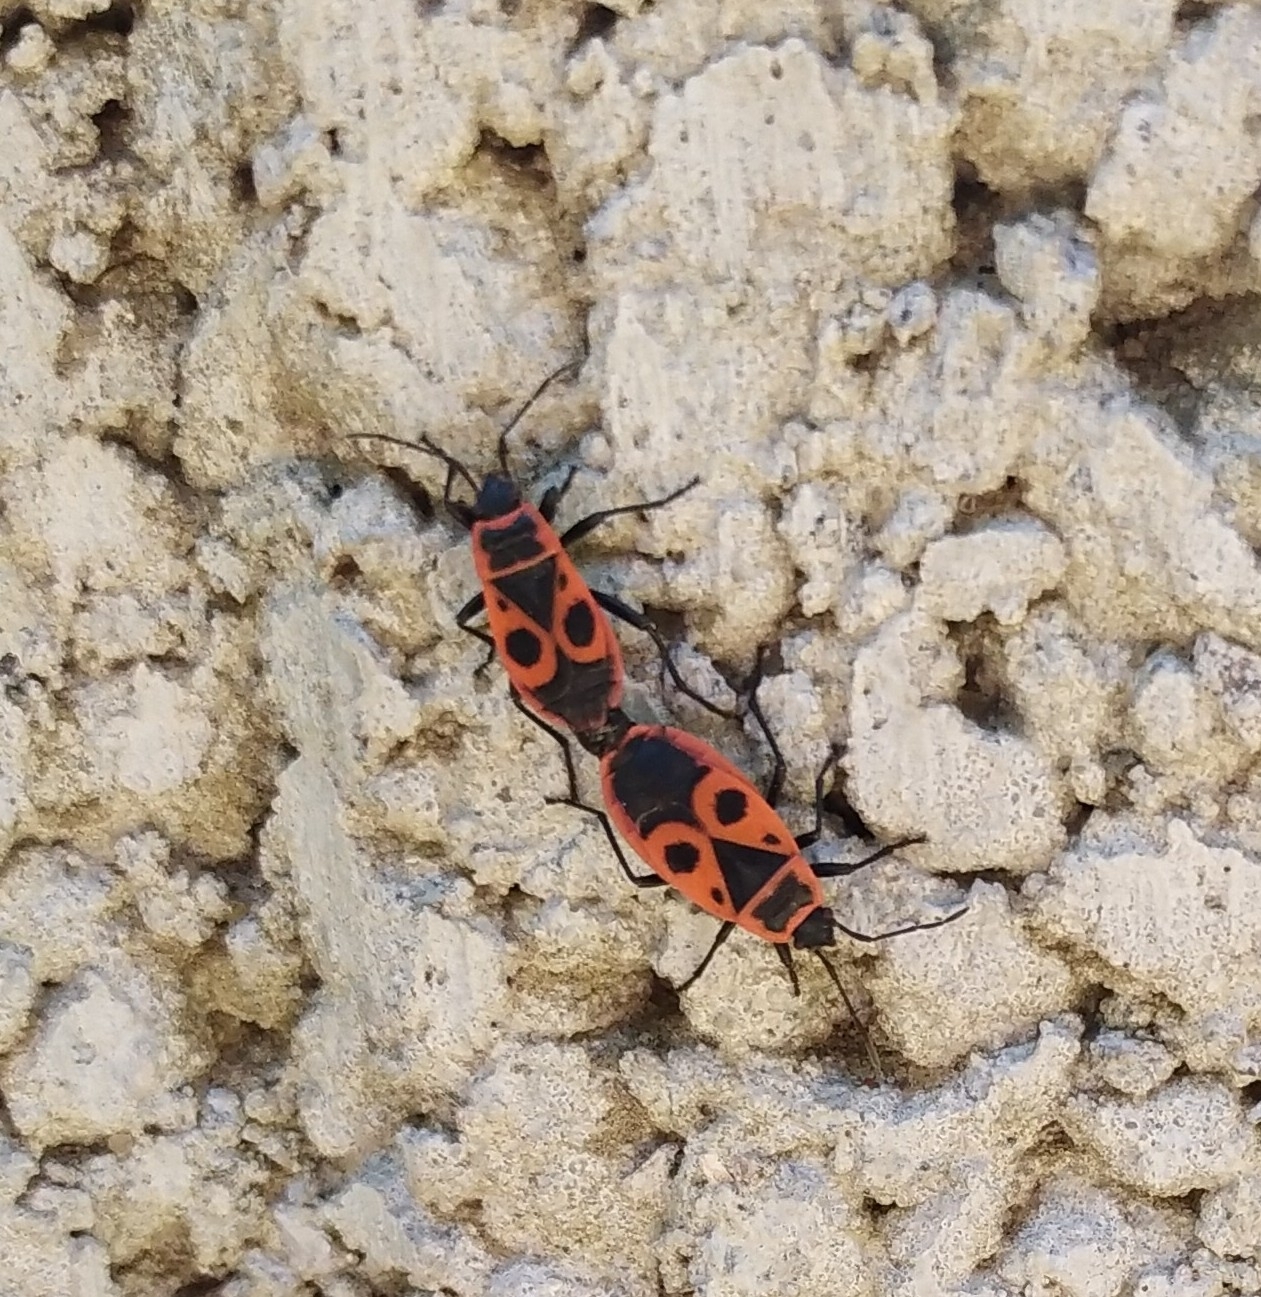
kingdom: Animalia
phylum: Arthropoda
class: Insecta
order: Hemiptera
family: Pyrrhocoridae
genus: Pyrrhocoris
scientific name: Pyrrhocoris apterus
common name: Firebug
